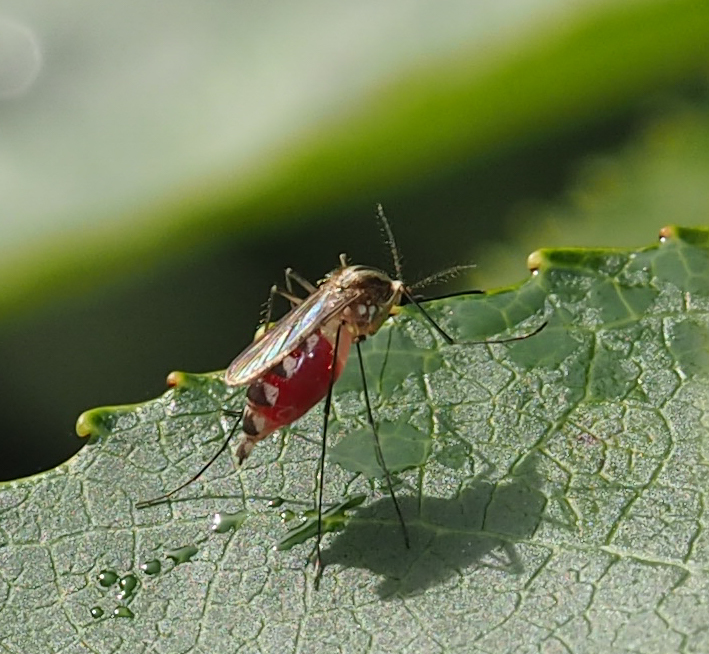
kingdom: Animalia
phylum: Arthropoda
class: Insecta
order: Diptera
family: Culicidae
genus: Aedes
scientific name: Aedes trivittatus
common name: Plains floodwater mosquito
